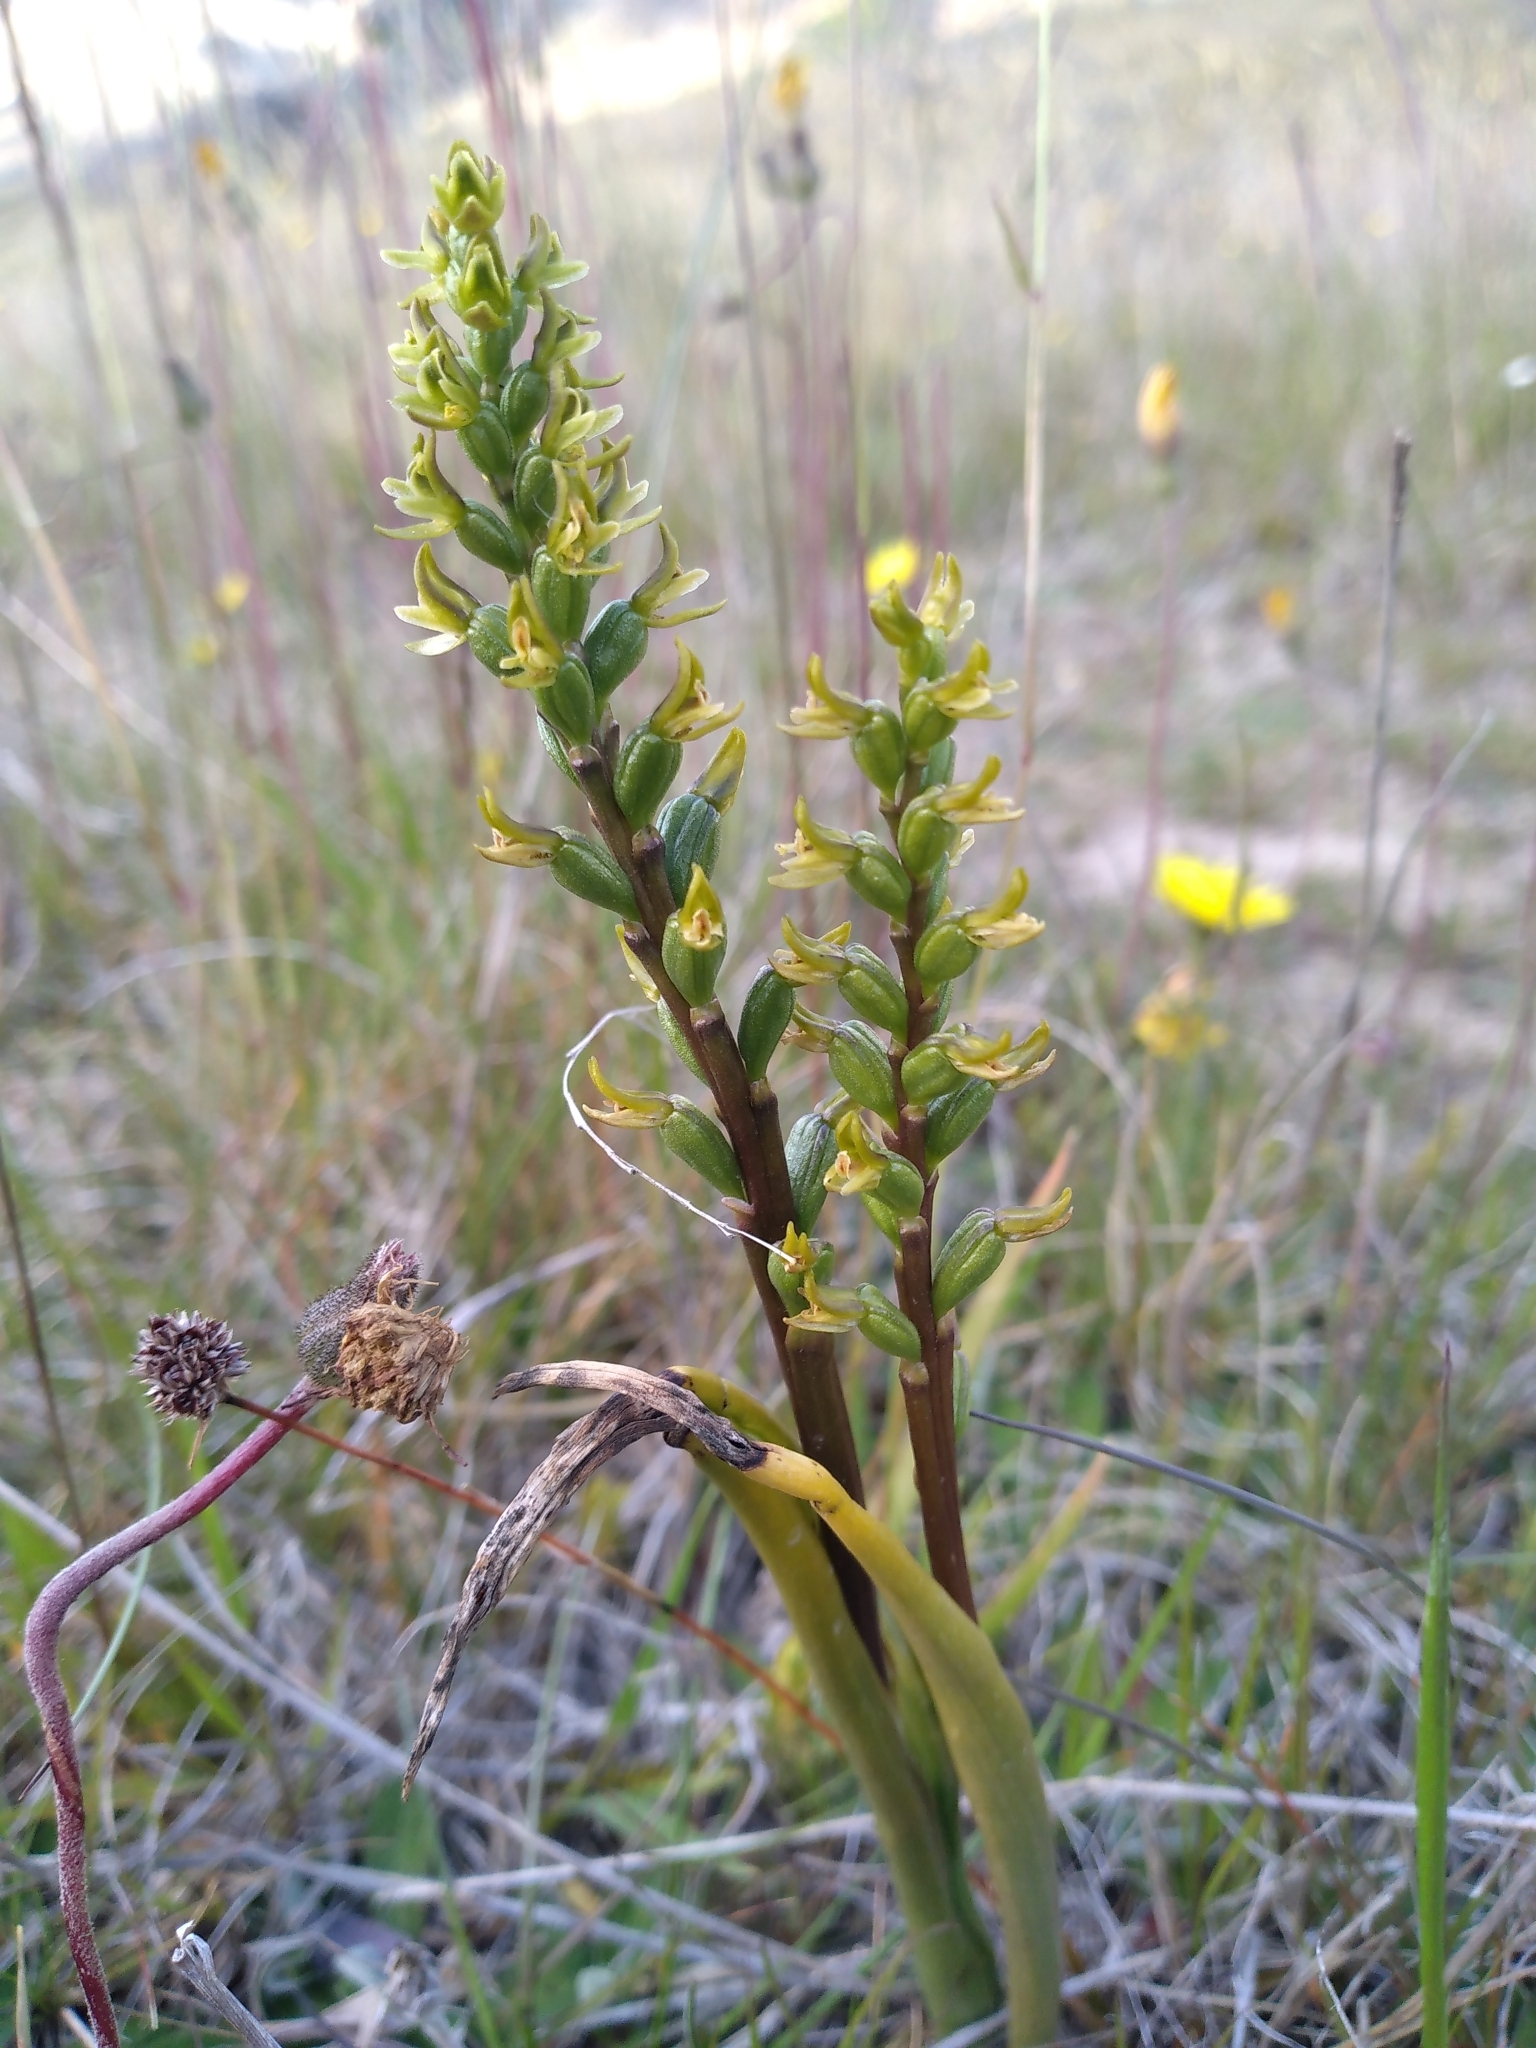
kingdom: Plantae
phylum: Tracheophyta
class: Liliopsida
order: Asparagales
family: Orchidaceae
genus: Prasophyllum
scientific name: Prasophyllum colensoi
